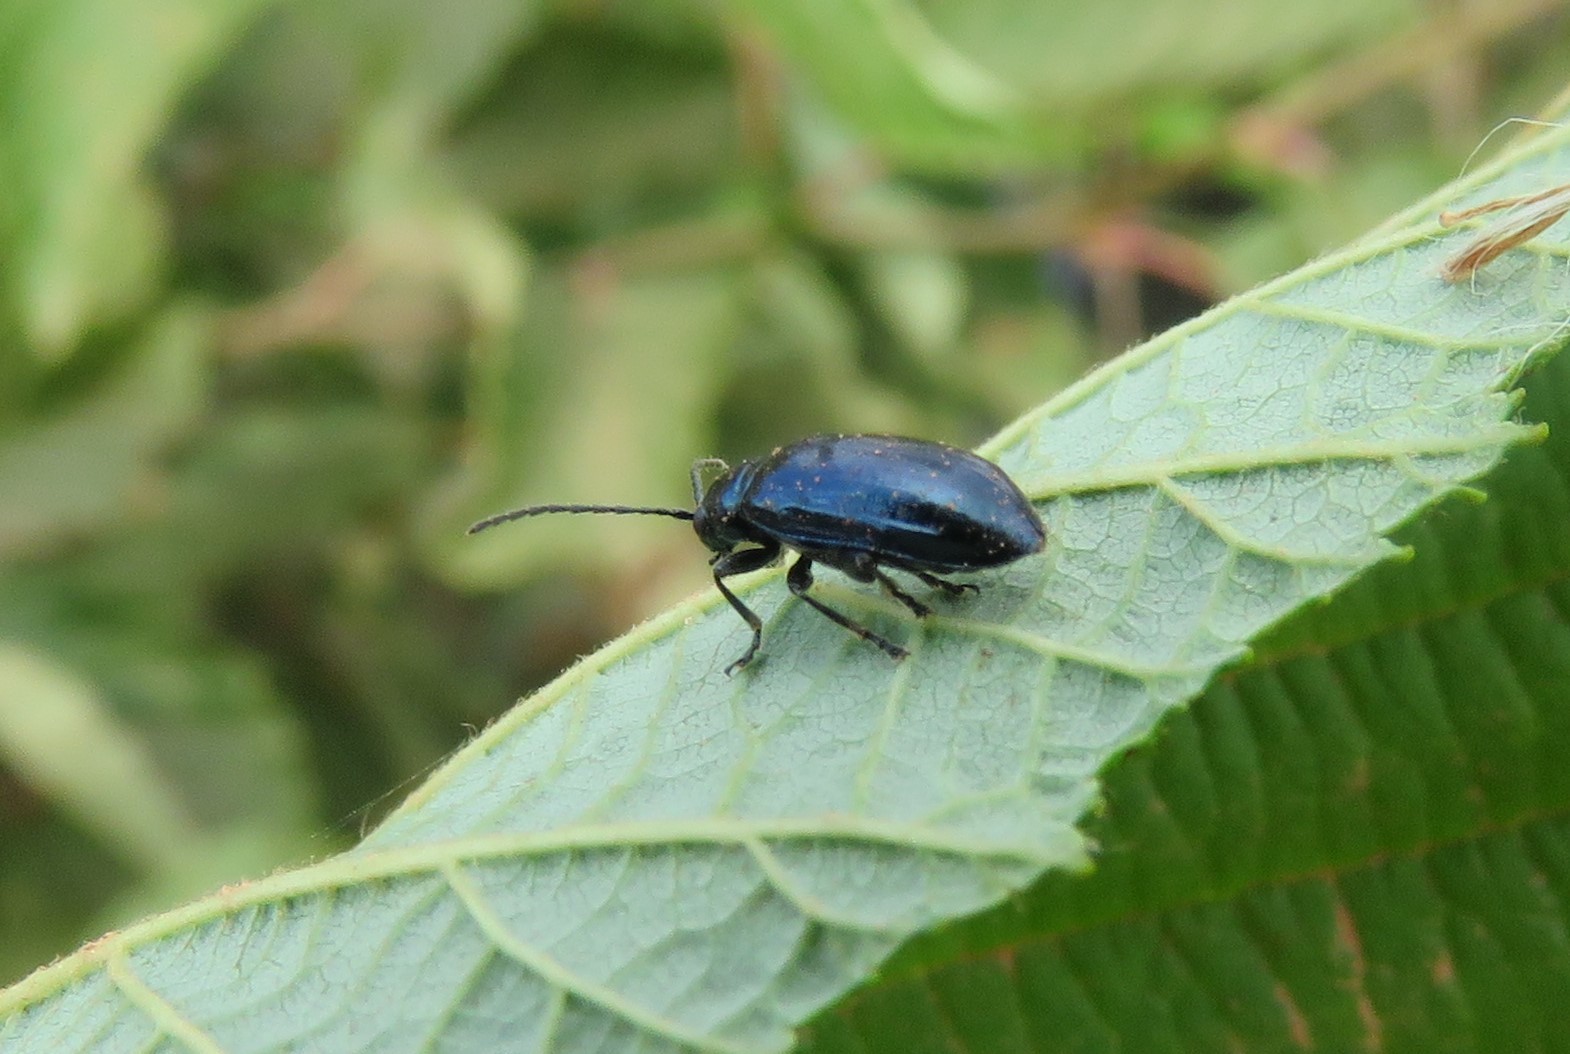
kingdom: Animalia
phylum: Arthropoda
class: Insecta
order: Coleoptera
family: Chrysomelidae
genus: Altica
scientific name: Altica ambiens
